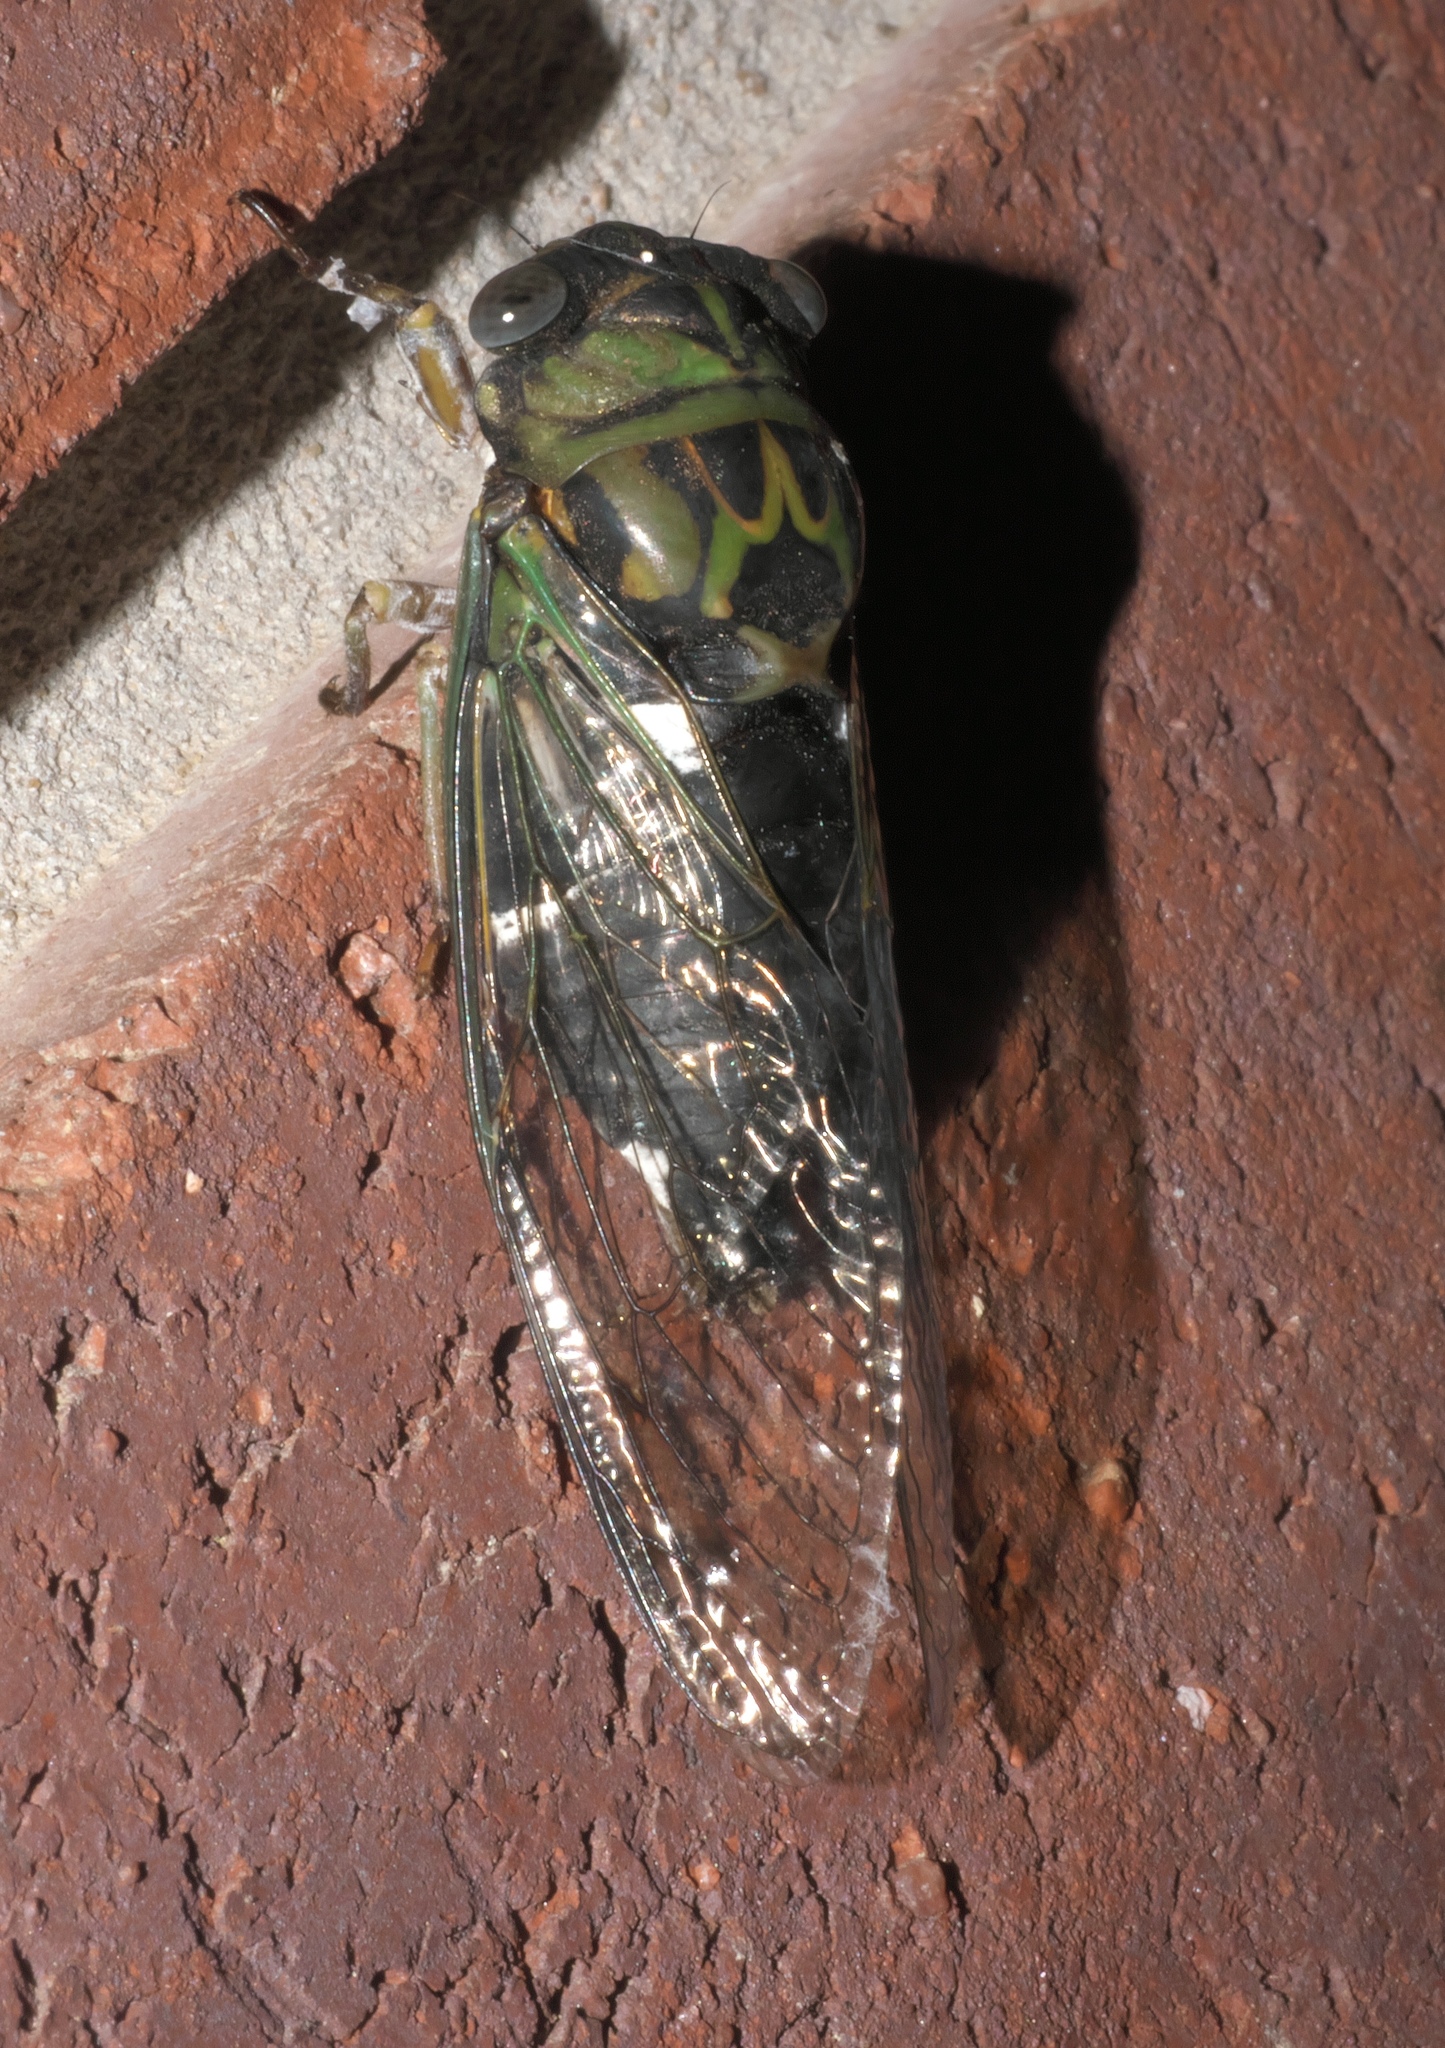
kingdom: Animalia
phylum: Arthropoda
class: Insecta
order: Hemiptera
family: Cicadidae
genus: Neotibicen
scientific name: Neotibicen pruinosus
